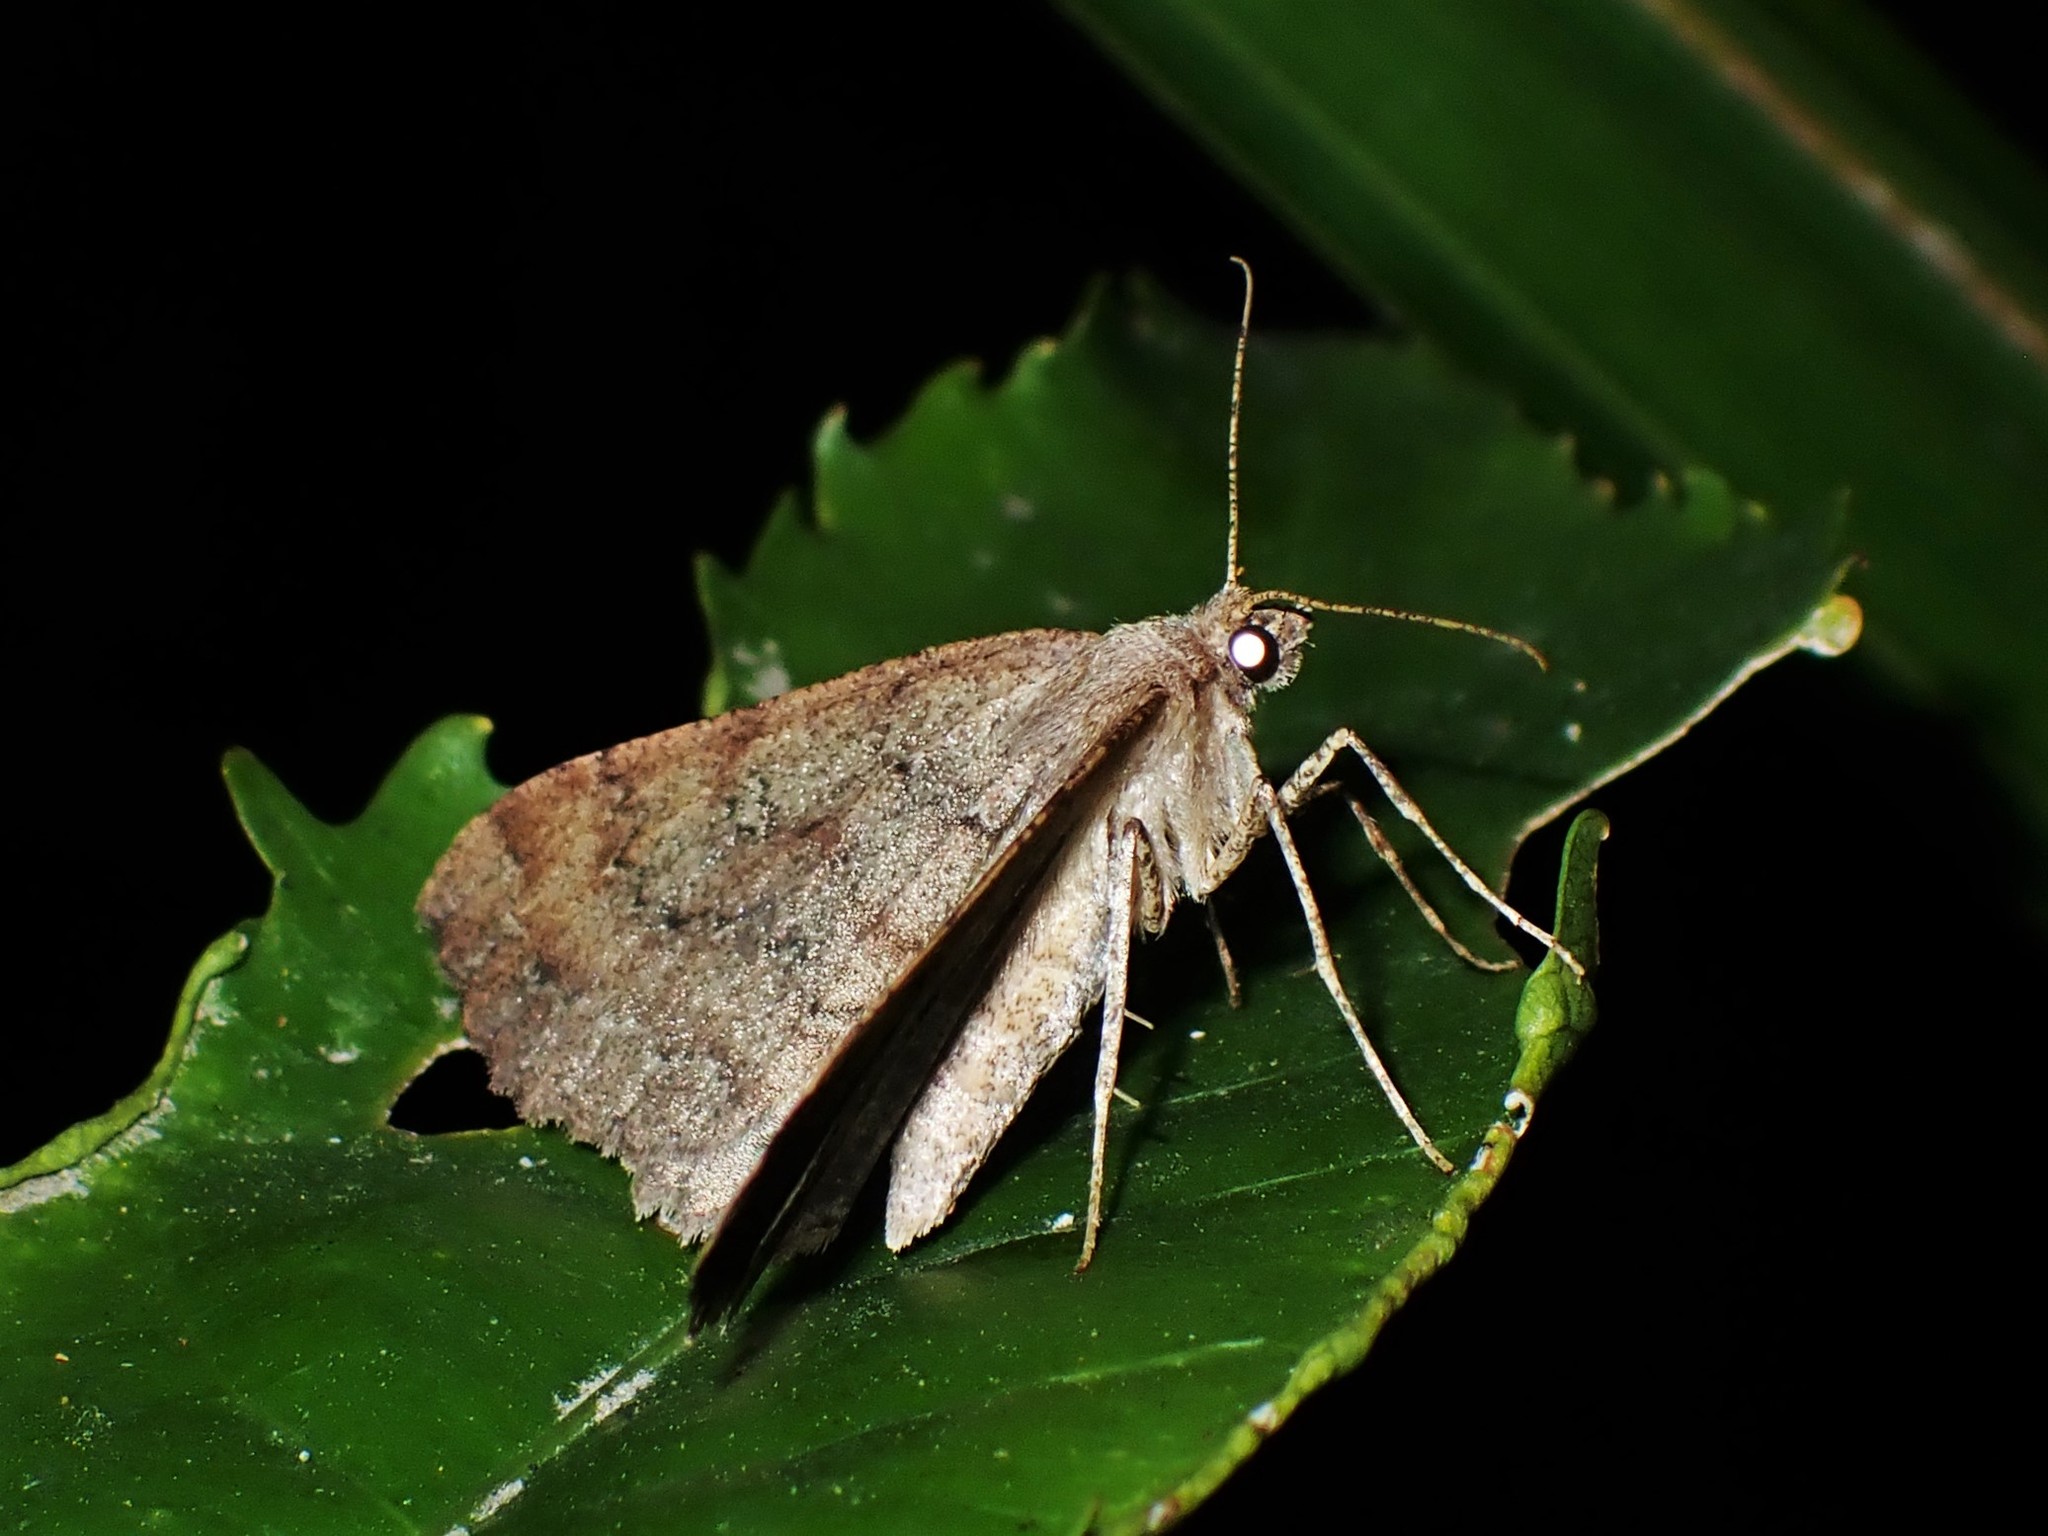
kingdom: Animalia
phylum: Arthropoda
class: Insecta
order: Lepidoptera
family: Geometridae
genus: Cleora
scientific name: Cleora scriptaria
